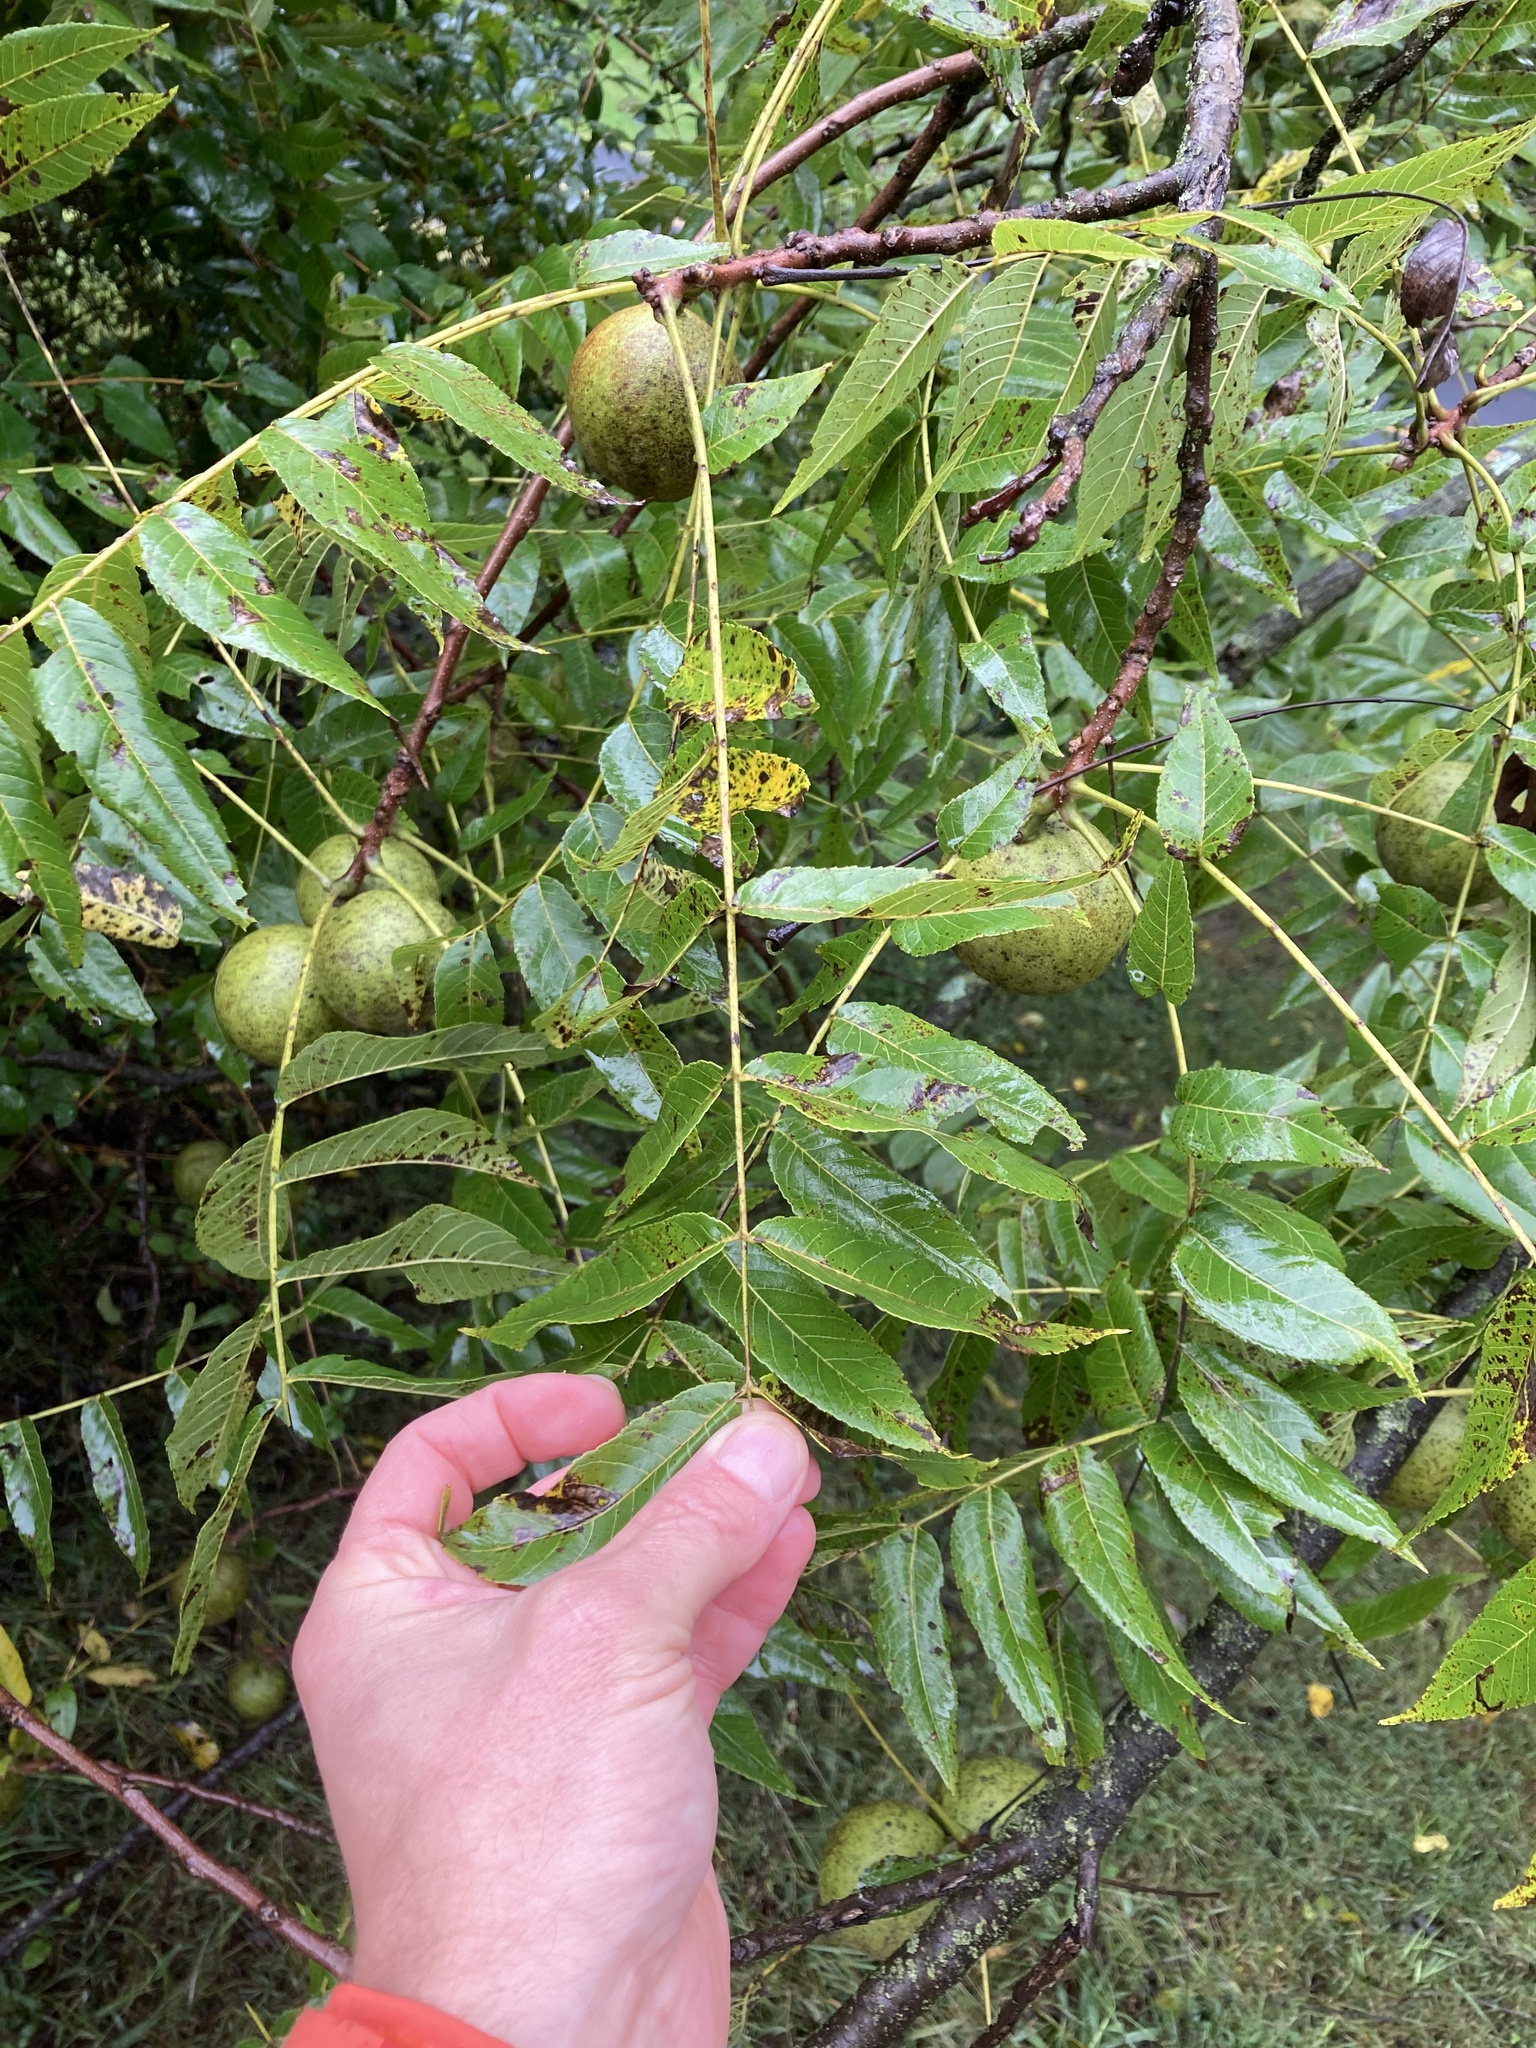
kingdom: Plantae
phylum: Tracheophyta
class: Magnoliopsida
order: Fagales
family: Juglandaceae
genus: Juglans
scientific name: Juglans nigra
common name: Black walnut
